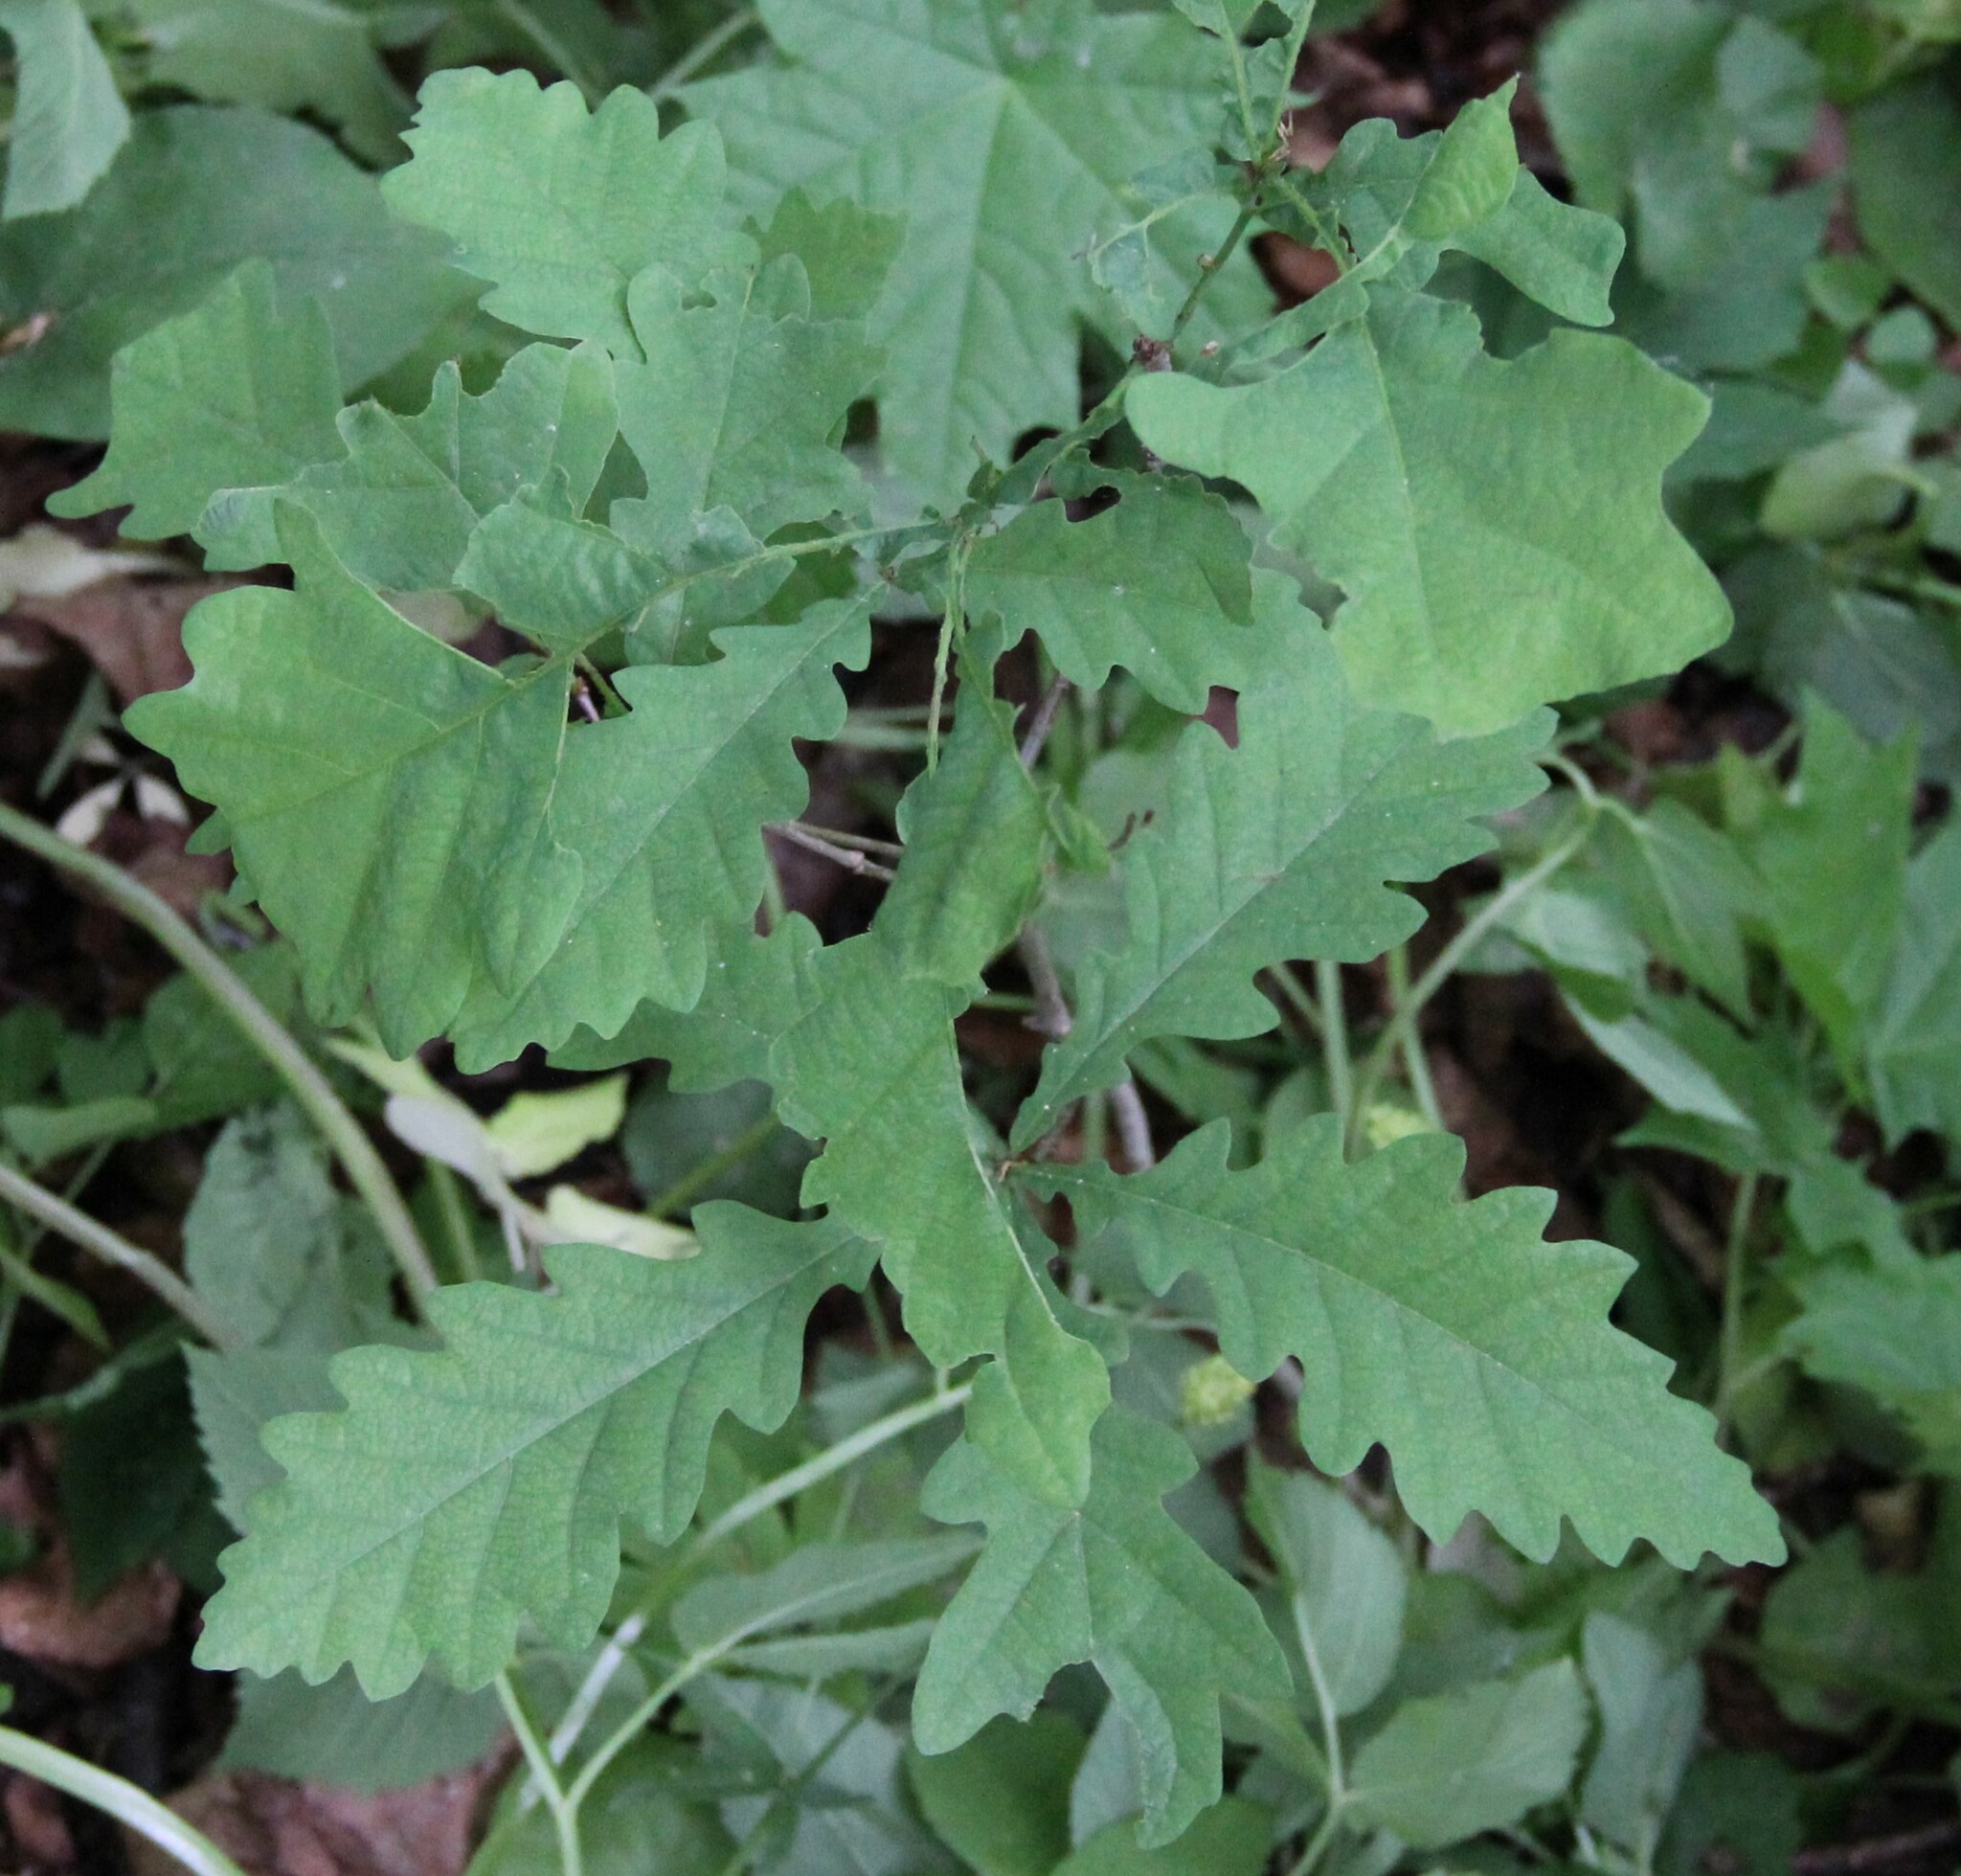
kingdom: Plantae
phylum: Tracheophyta
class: Magnoliopsida
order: Fagales
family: Fagaceae
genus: Quercus
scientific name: Quercus robur
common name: Pedunculate oak
